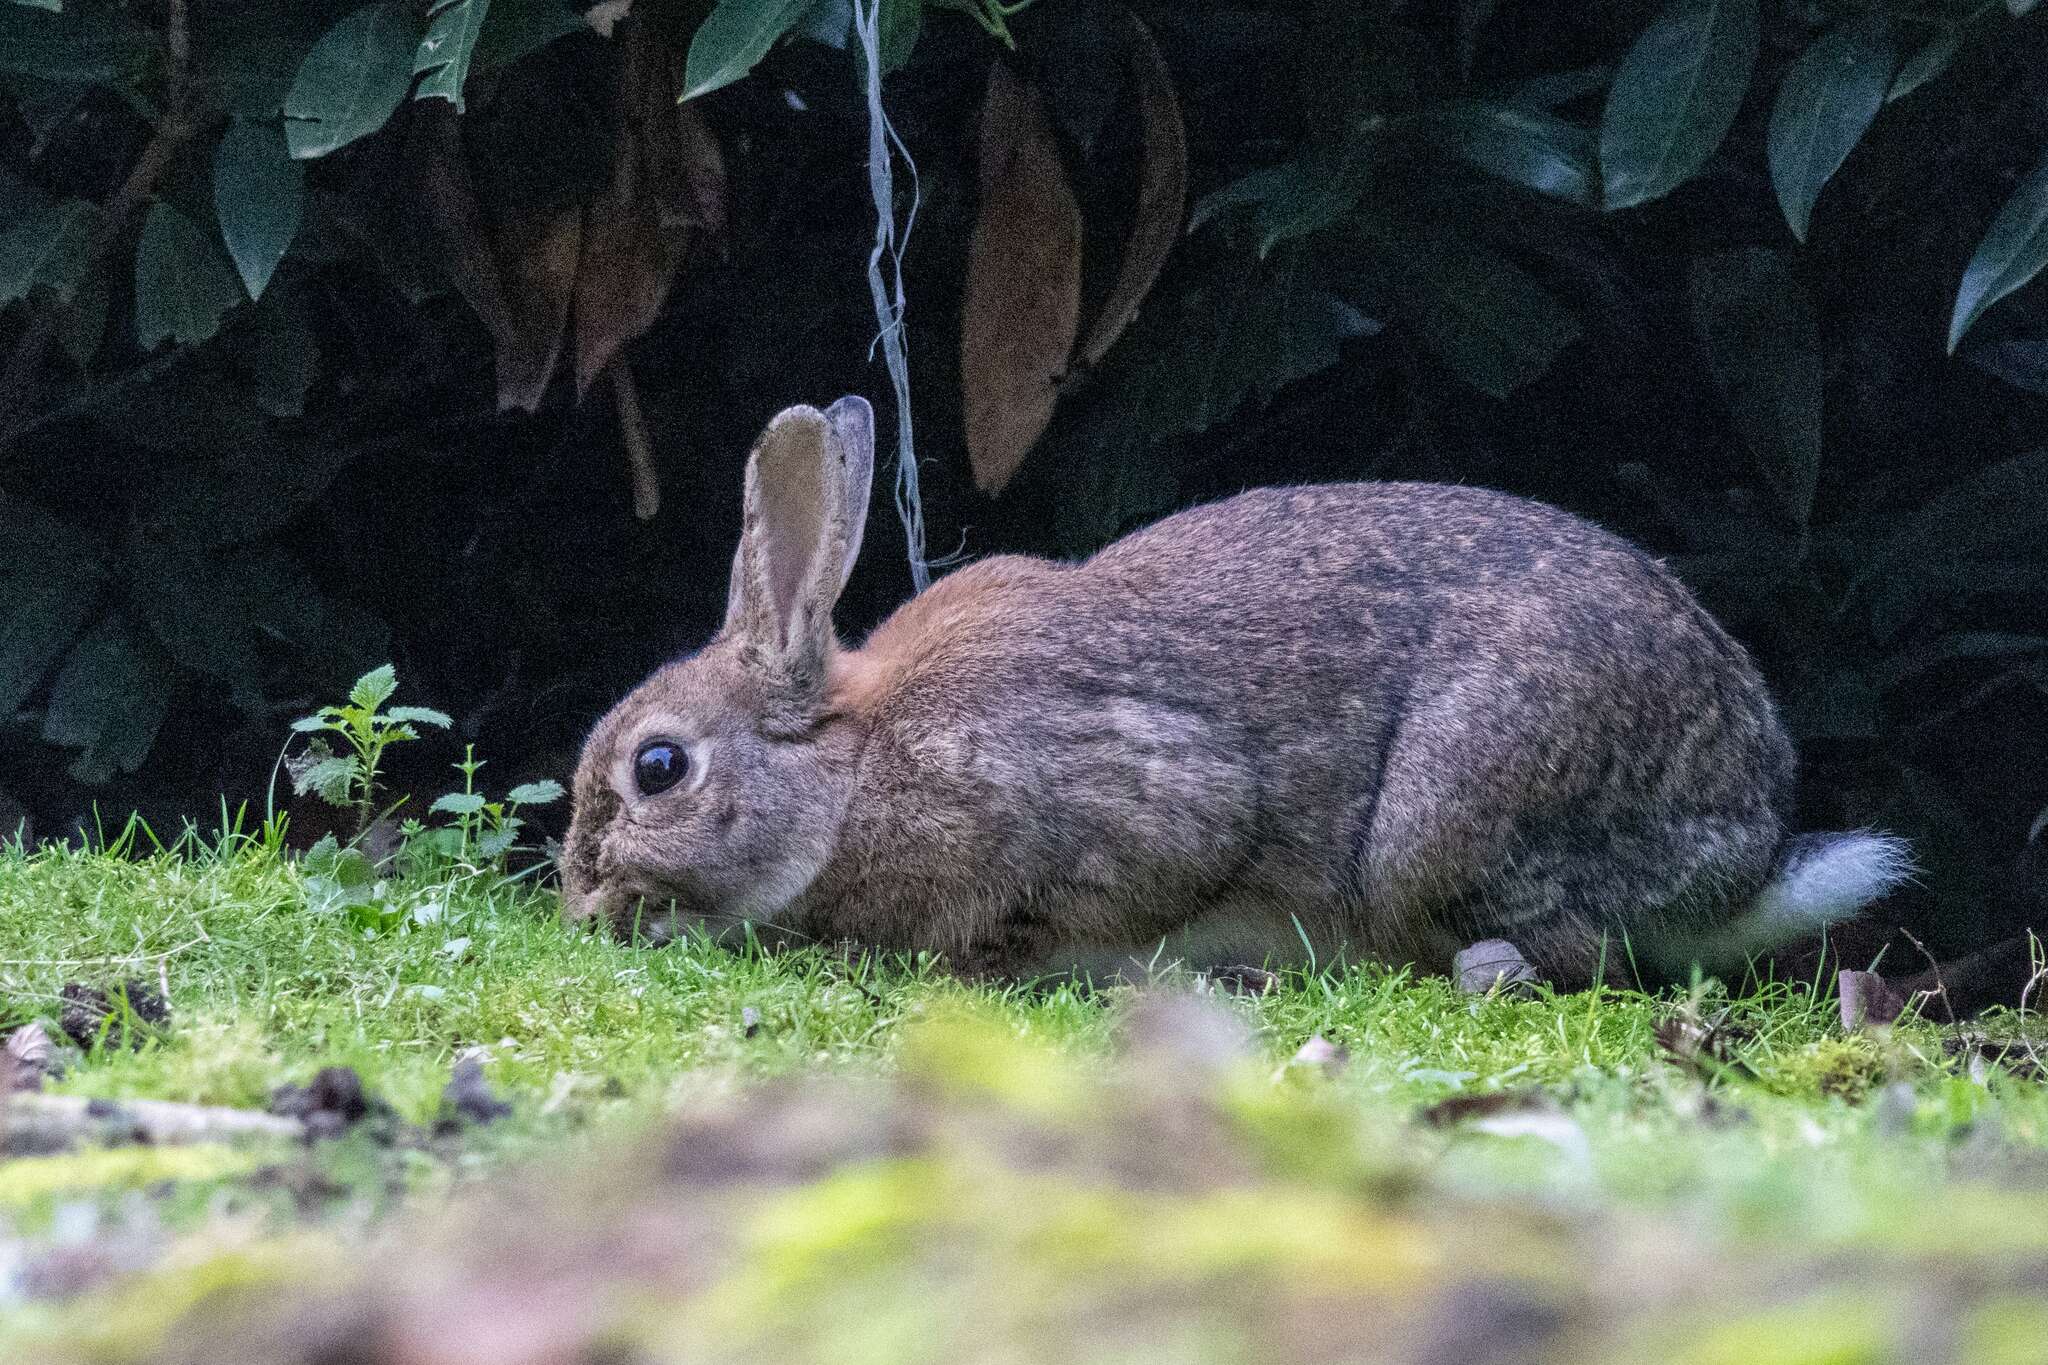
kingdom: Animalia
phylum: Chordata
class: Mammalia
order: Lagomorpha
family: Leporidae
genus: Oryctolagus
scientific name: Oryctolagus cuniculus
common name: European rabbit
